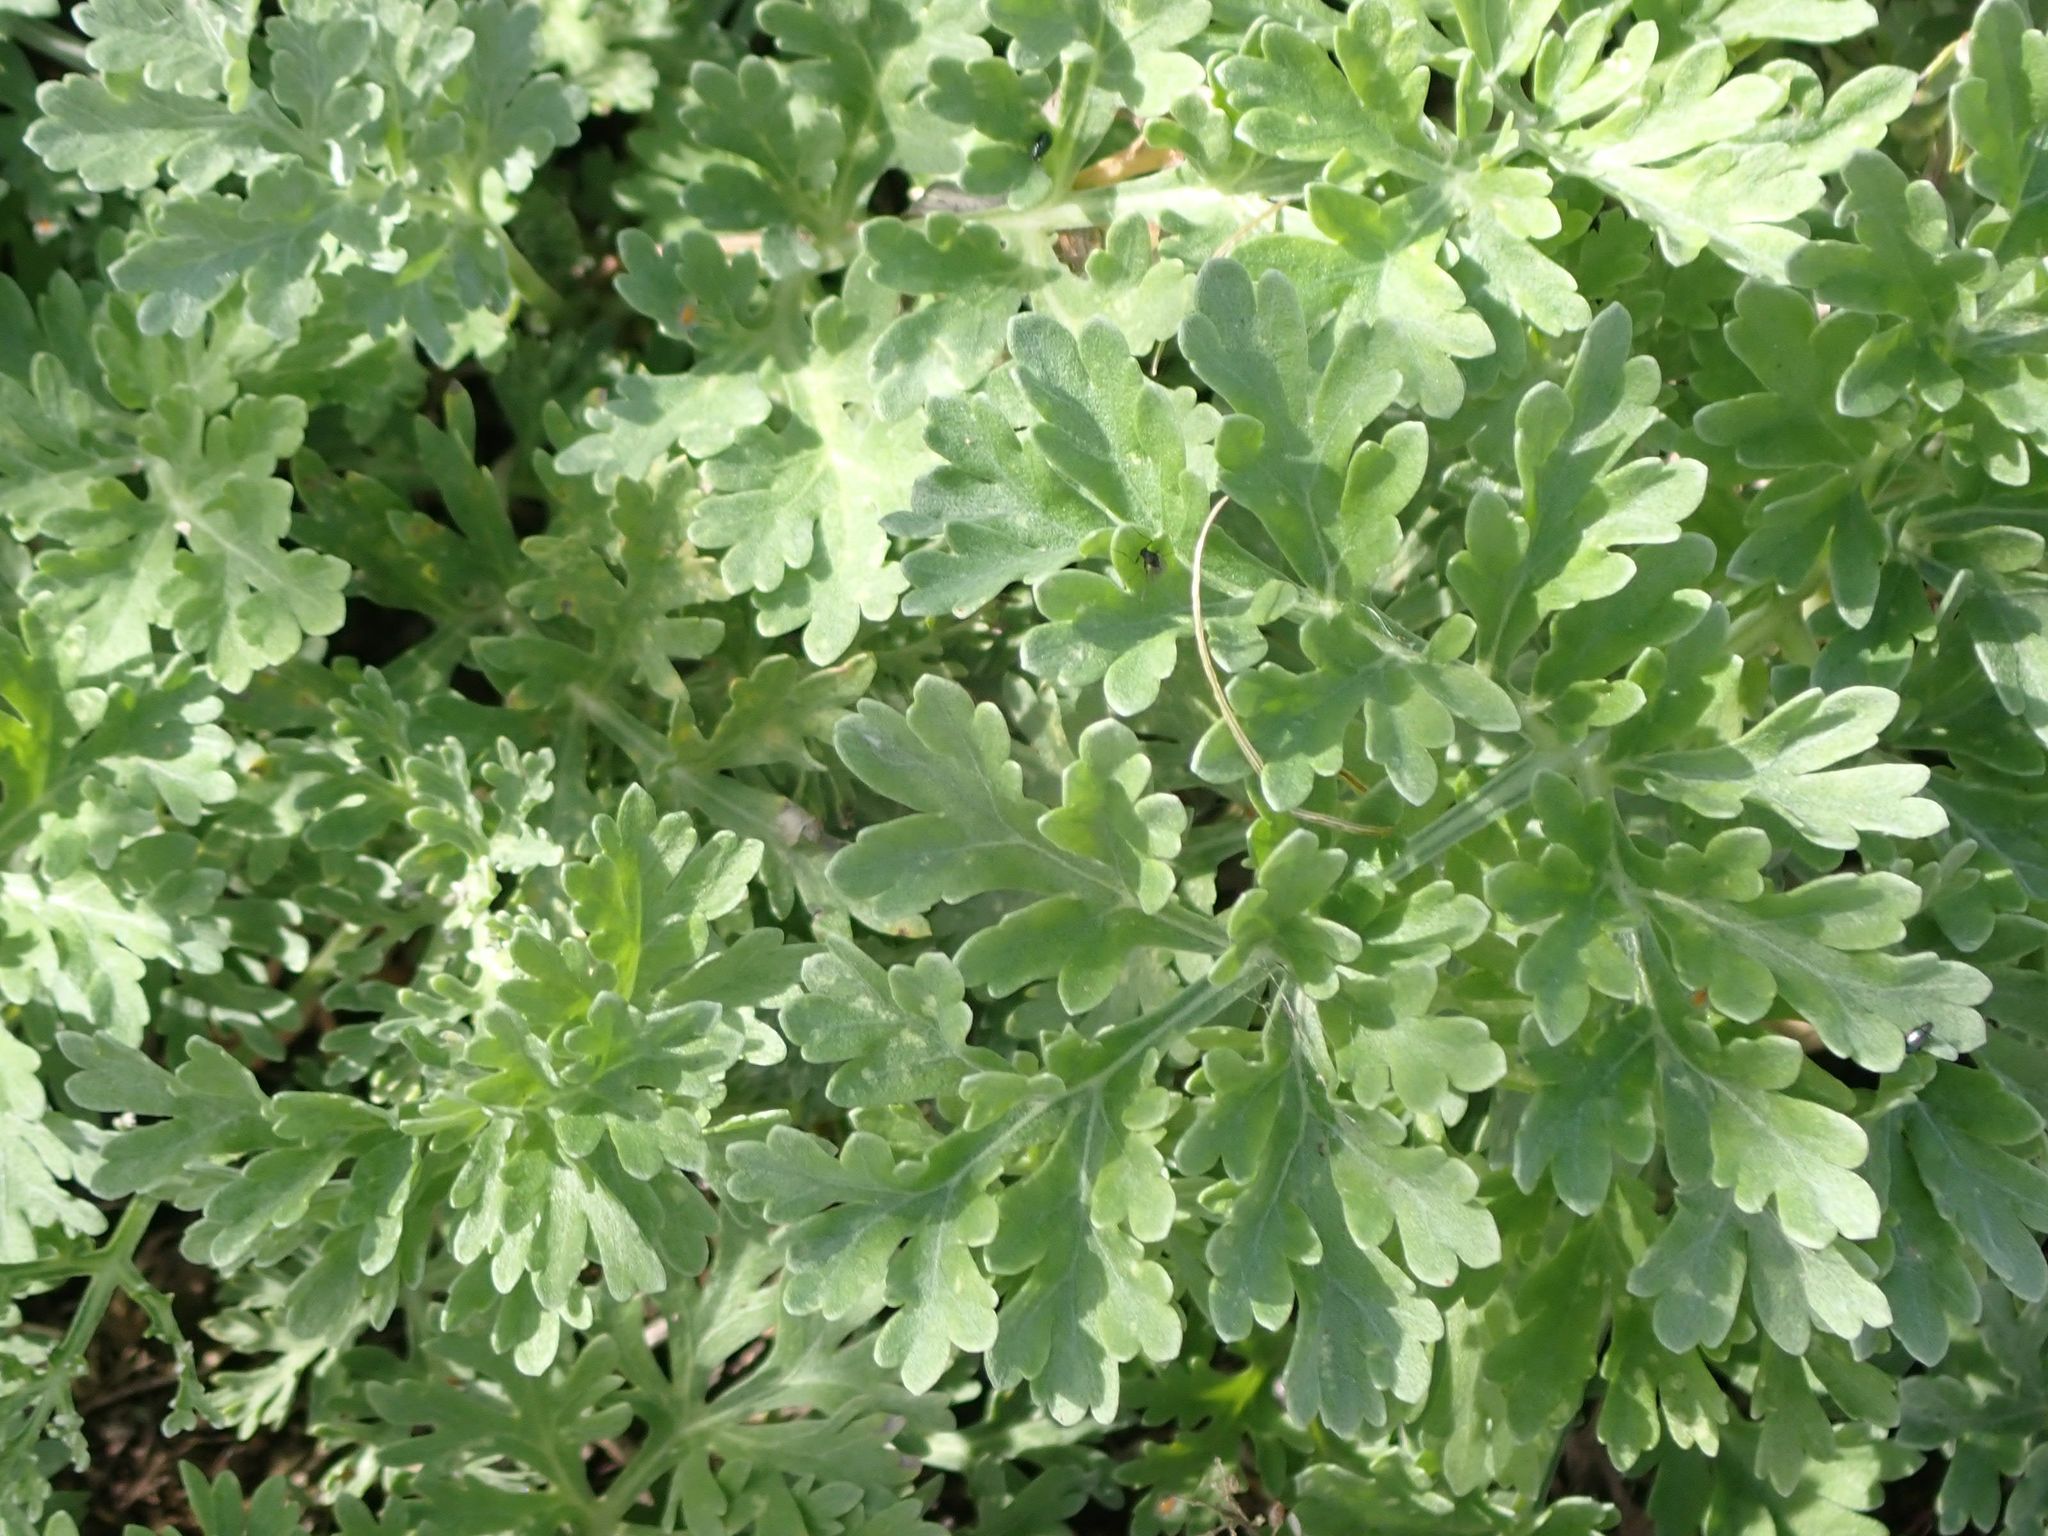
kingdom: Plantae
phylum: Tracheophyta
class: Magnoliopsida
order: Asterales
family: Asteraceae
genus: Artemisia
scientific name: Artemisia absinthium
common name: Wormwood
